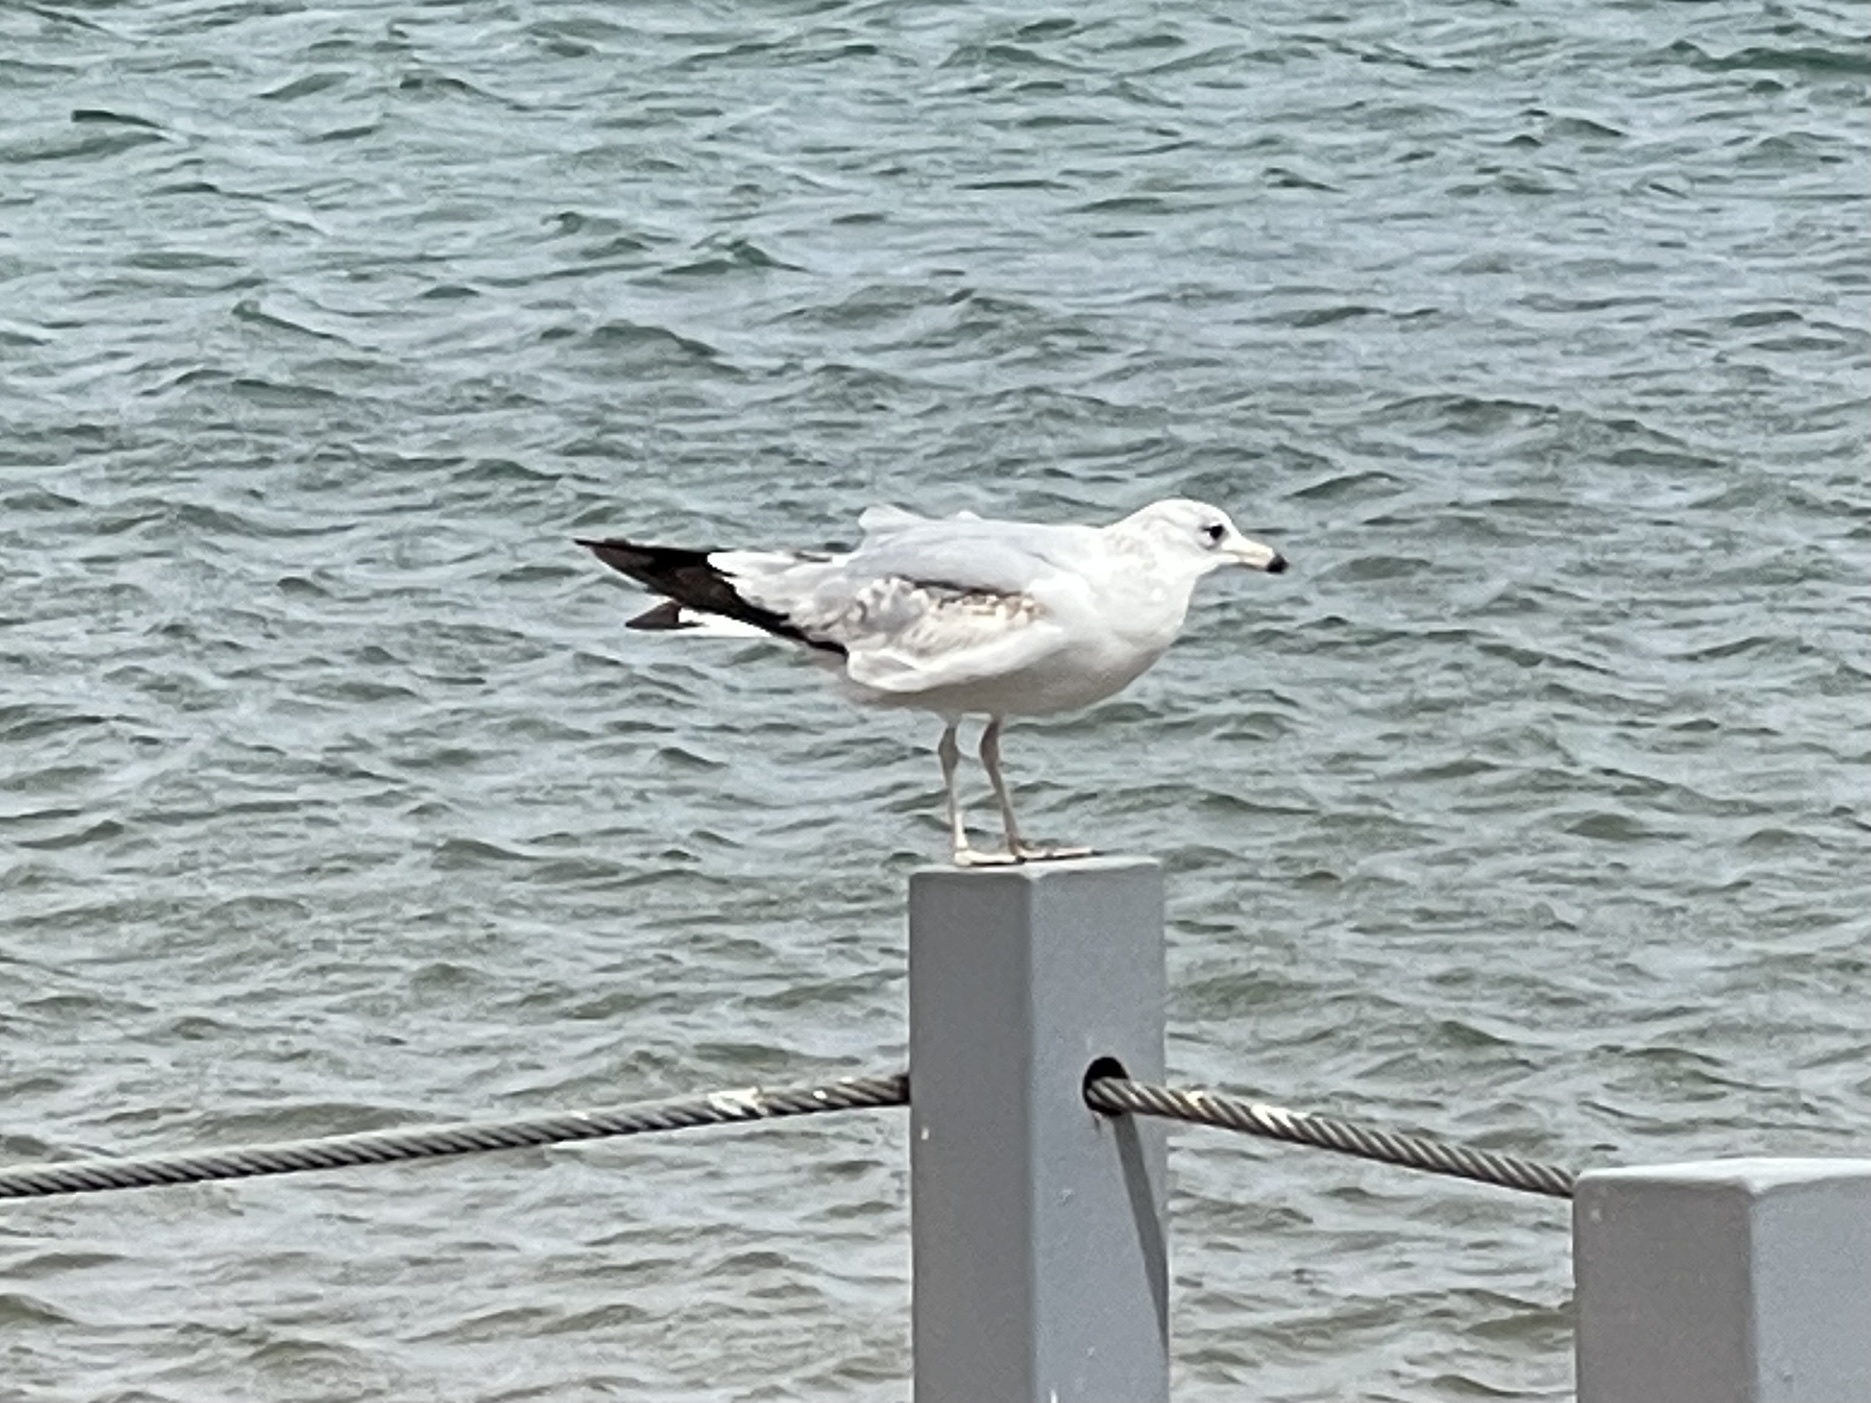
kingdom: Animalia
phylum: Chordata
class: Aves
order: Charadriiformes
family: Laridae
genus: Larus
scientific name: Larus delawarensis
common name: Ring-billed gull
